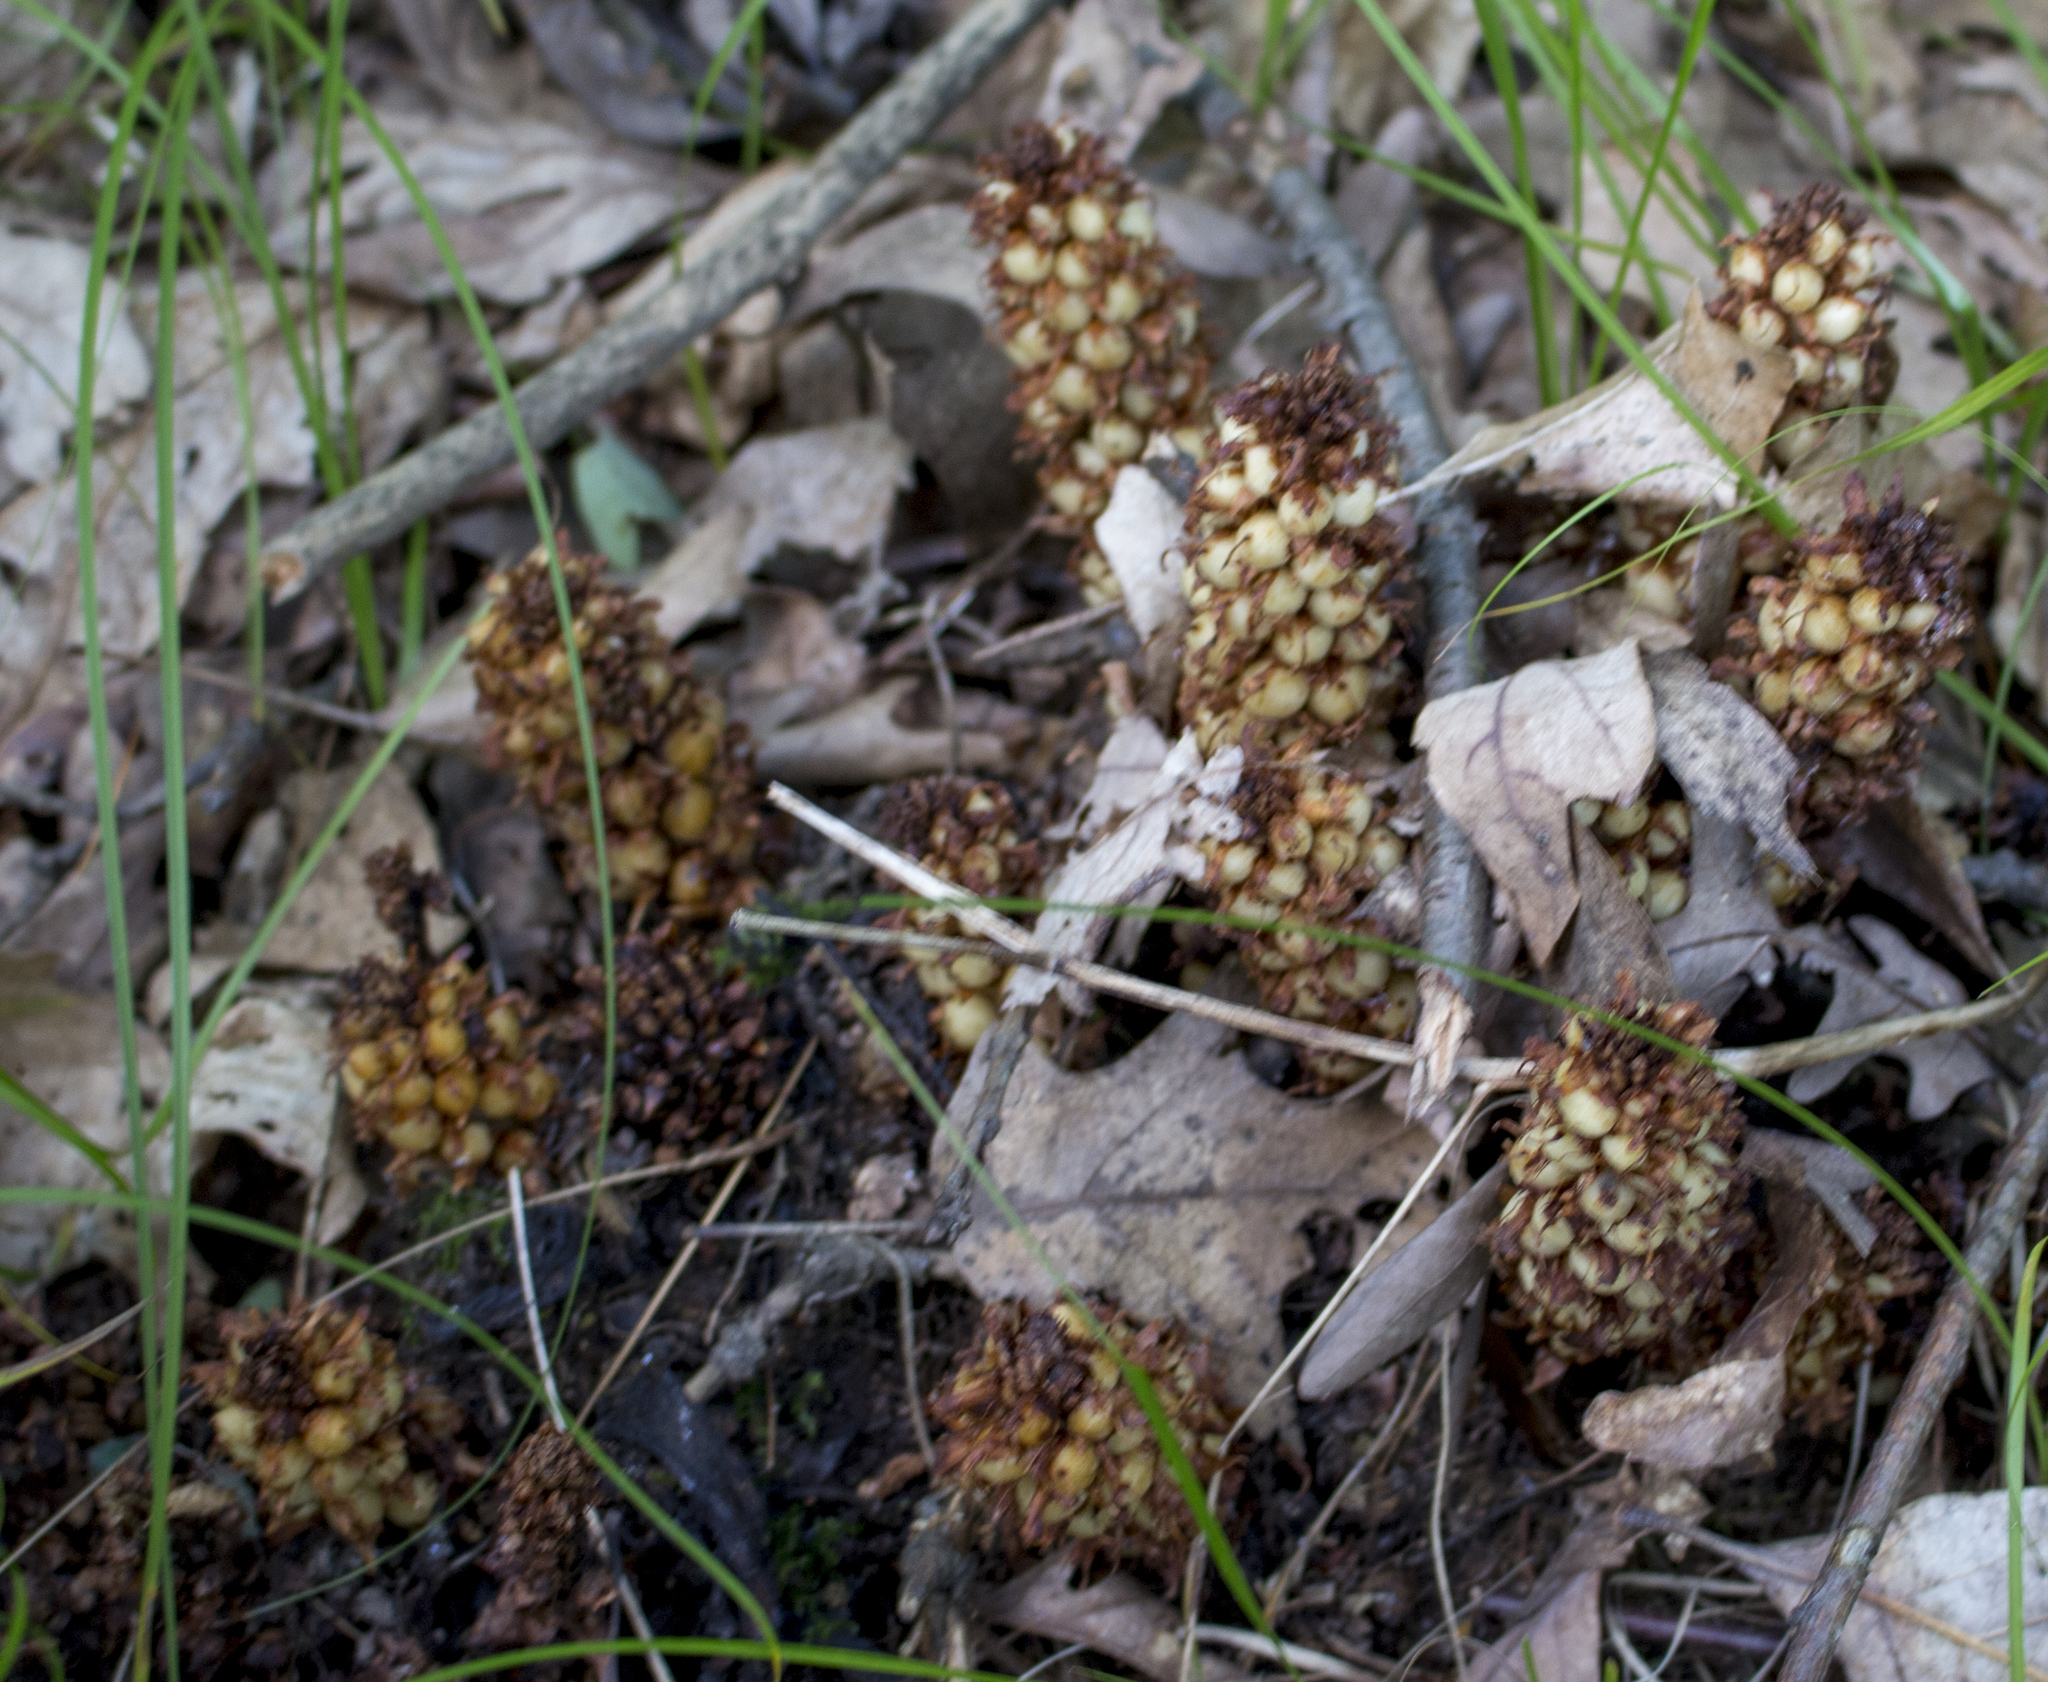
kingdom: Plantae
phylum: Tracheophyta
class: Magnoliopsida
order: Lamiales
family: Orobanchaceae
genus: Conopholis
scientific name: Conopholis americana
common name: American cancer-root
